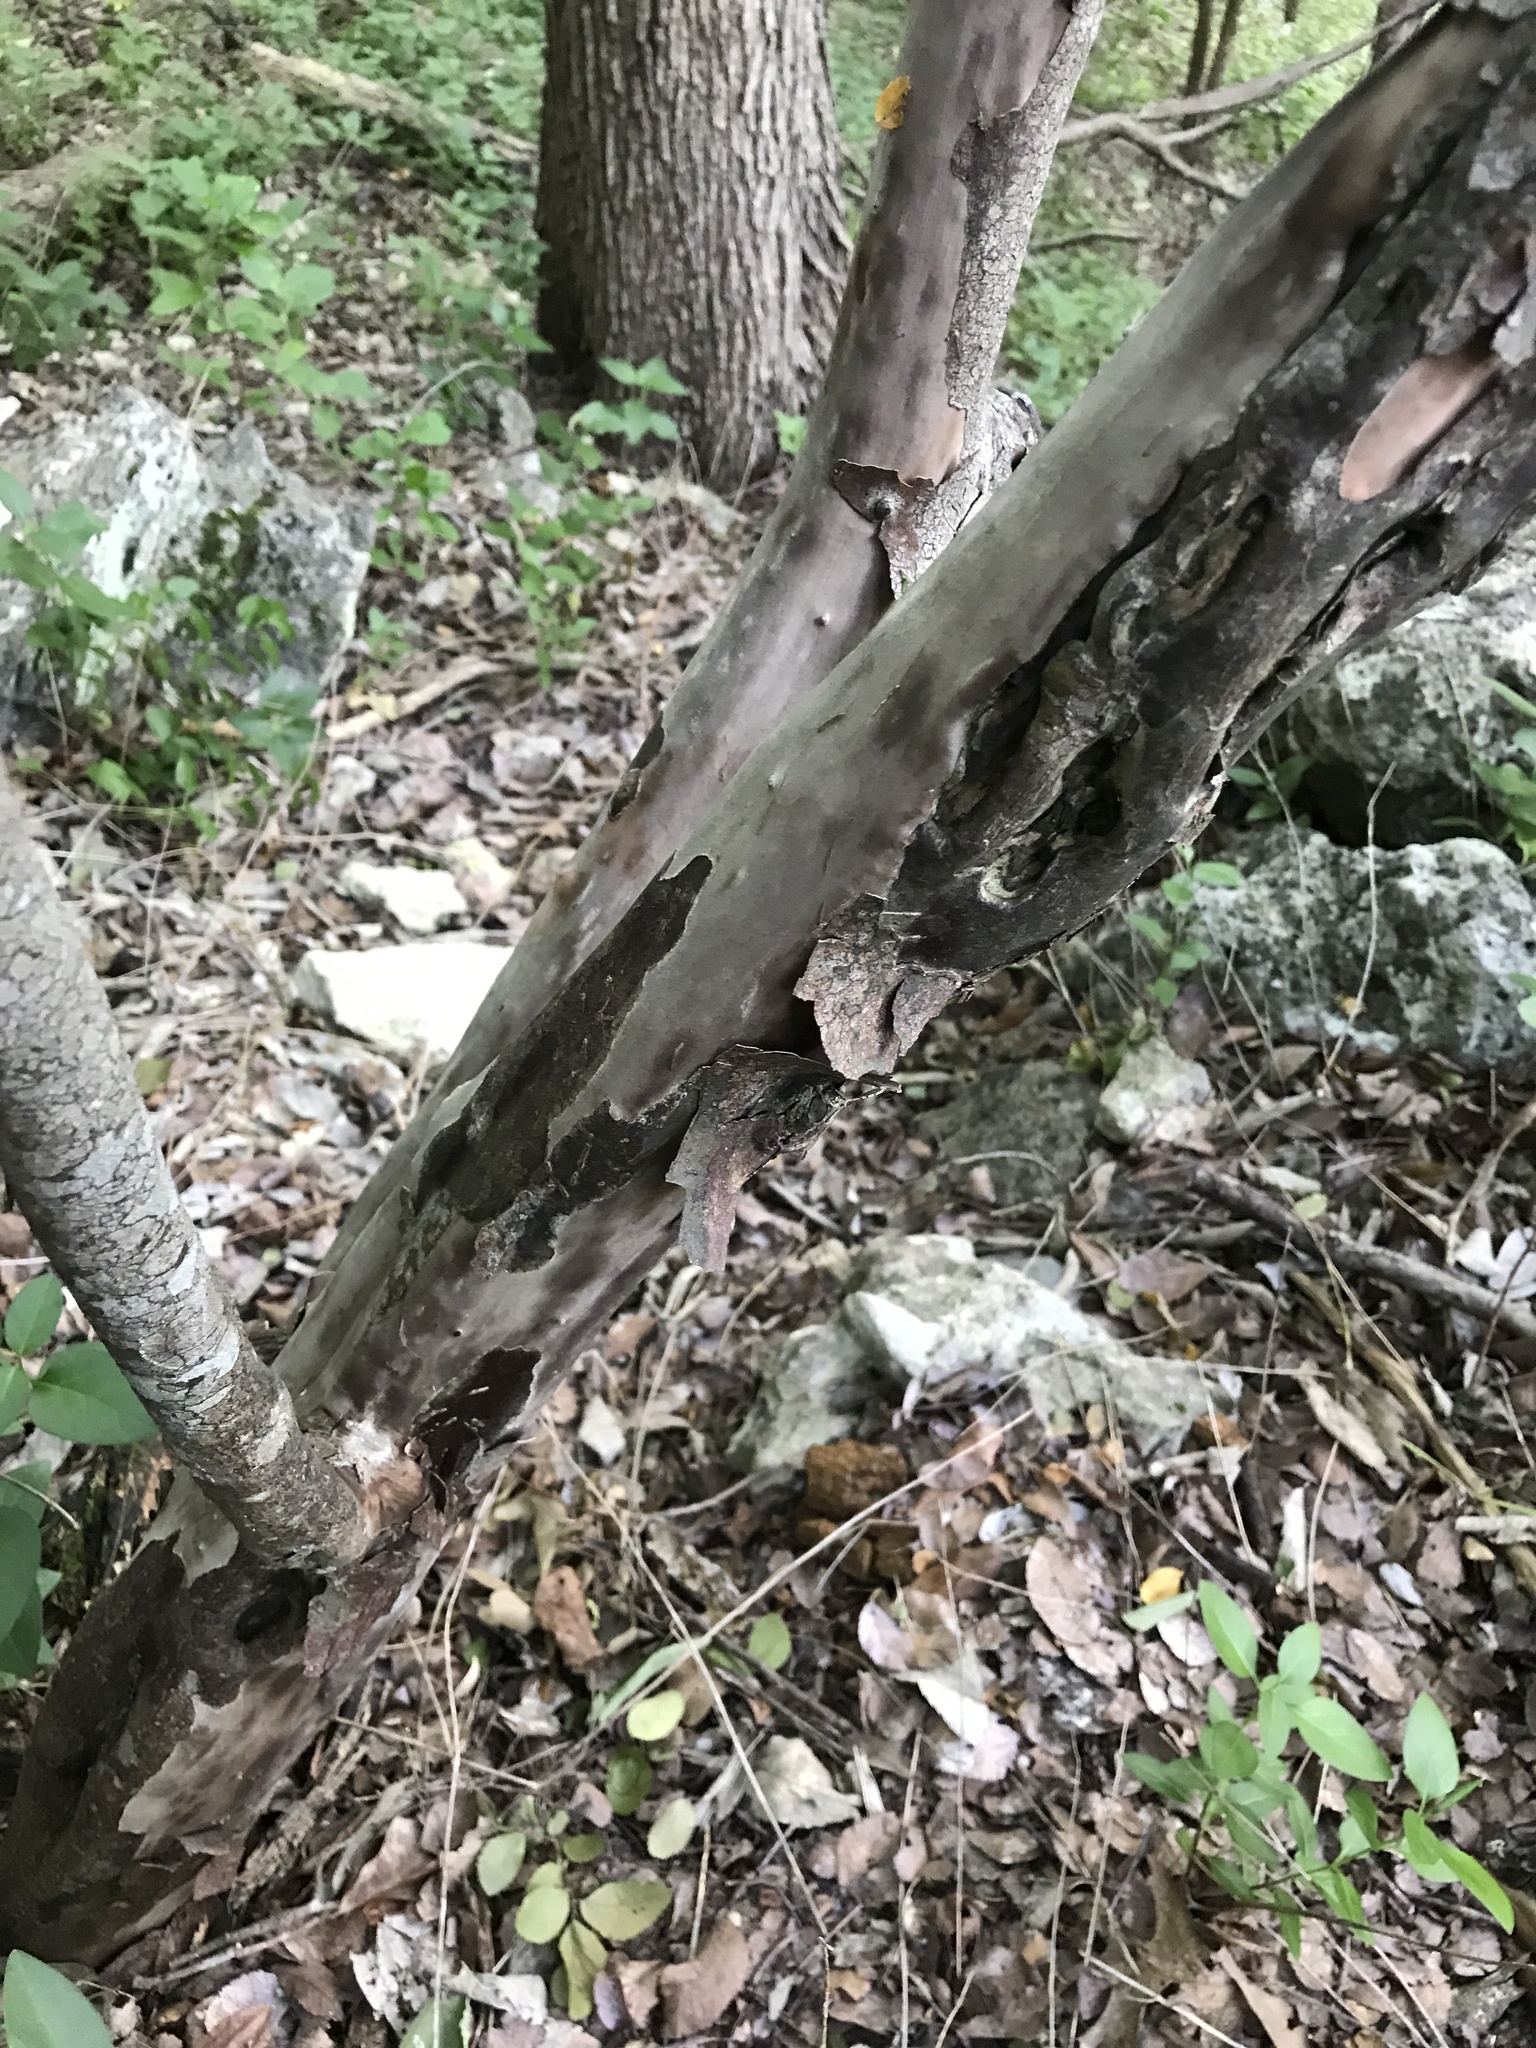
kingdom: Plantae
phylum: Tracheophyta
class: Magnoliopsida
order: Ericales
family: Ebenaceae
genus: Diospyros
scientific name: Diospyros texana
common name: Texas persimmon
